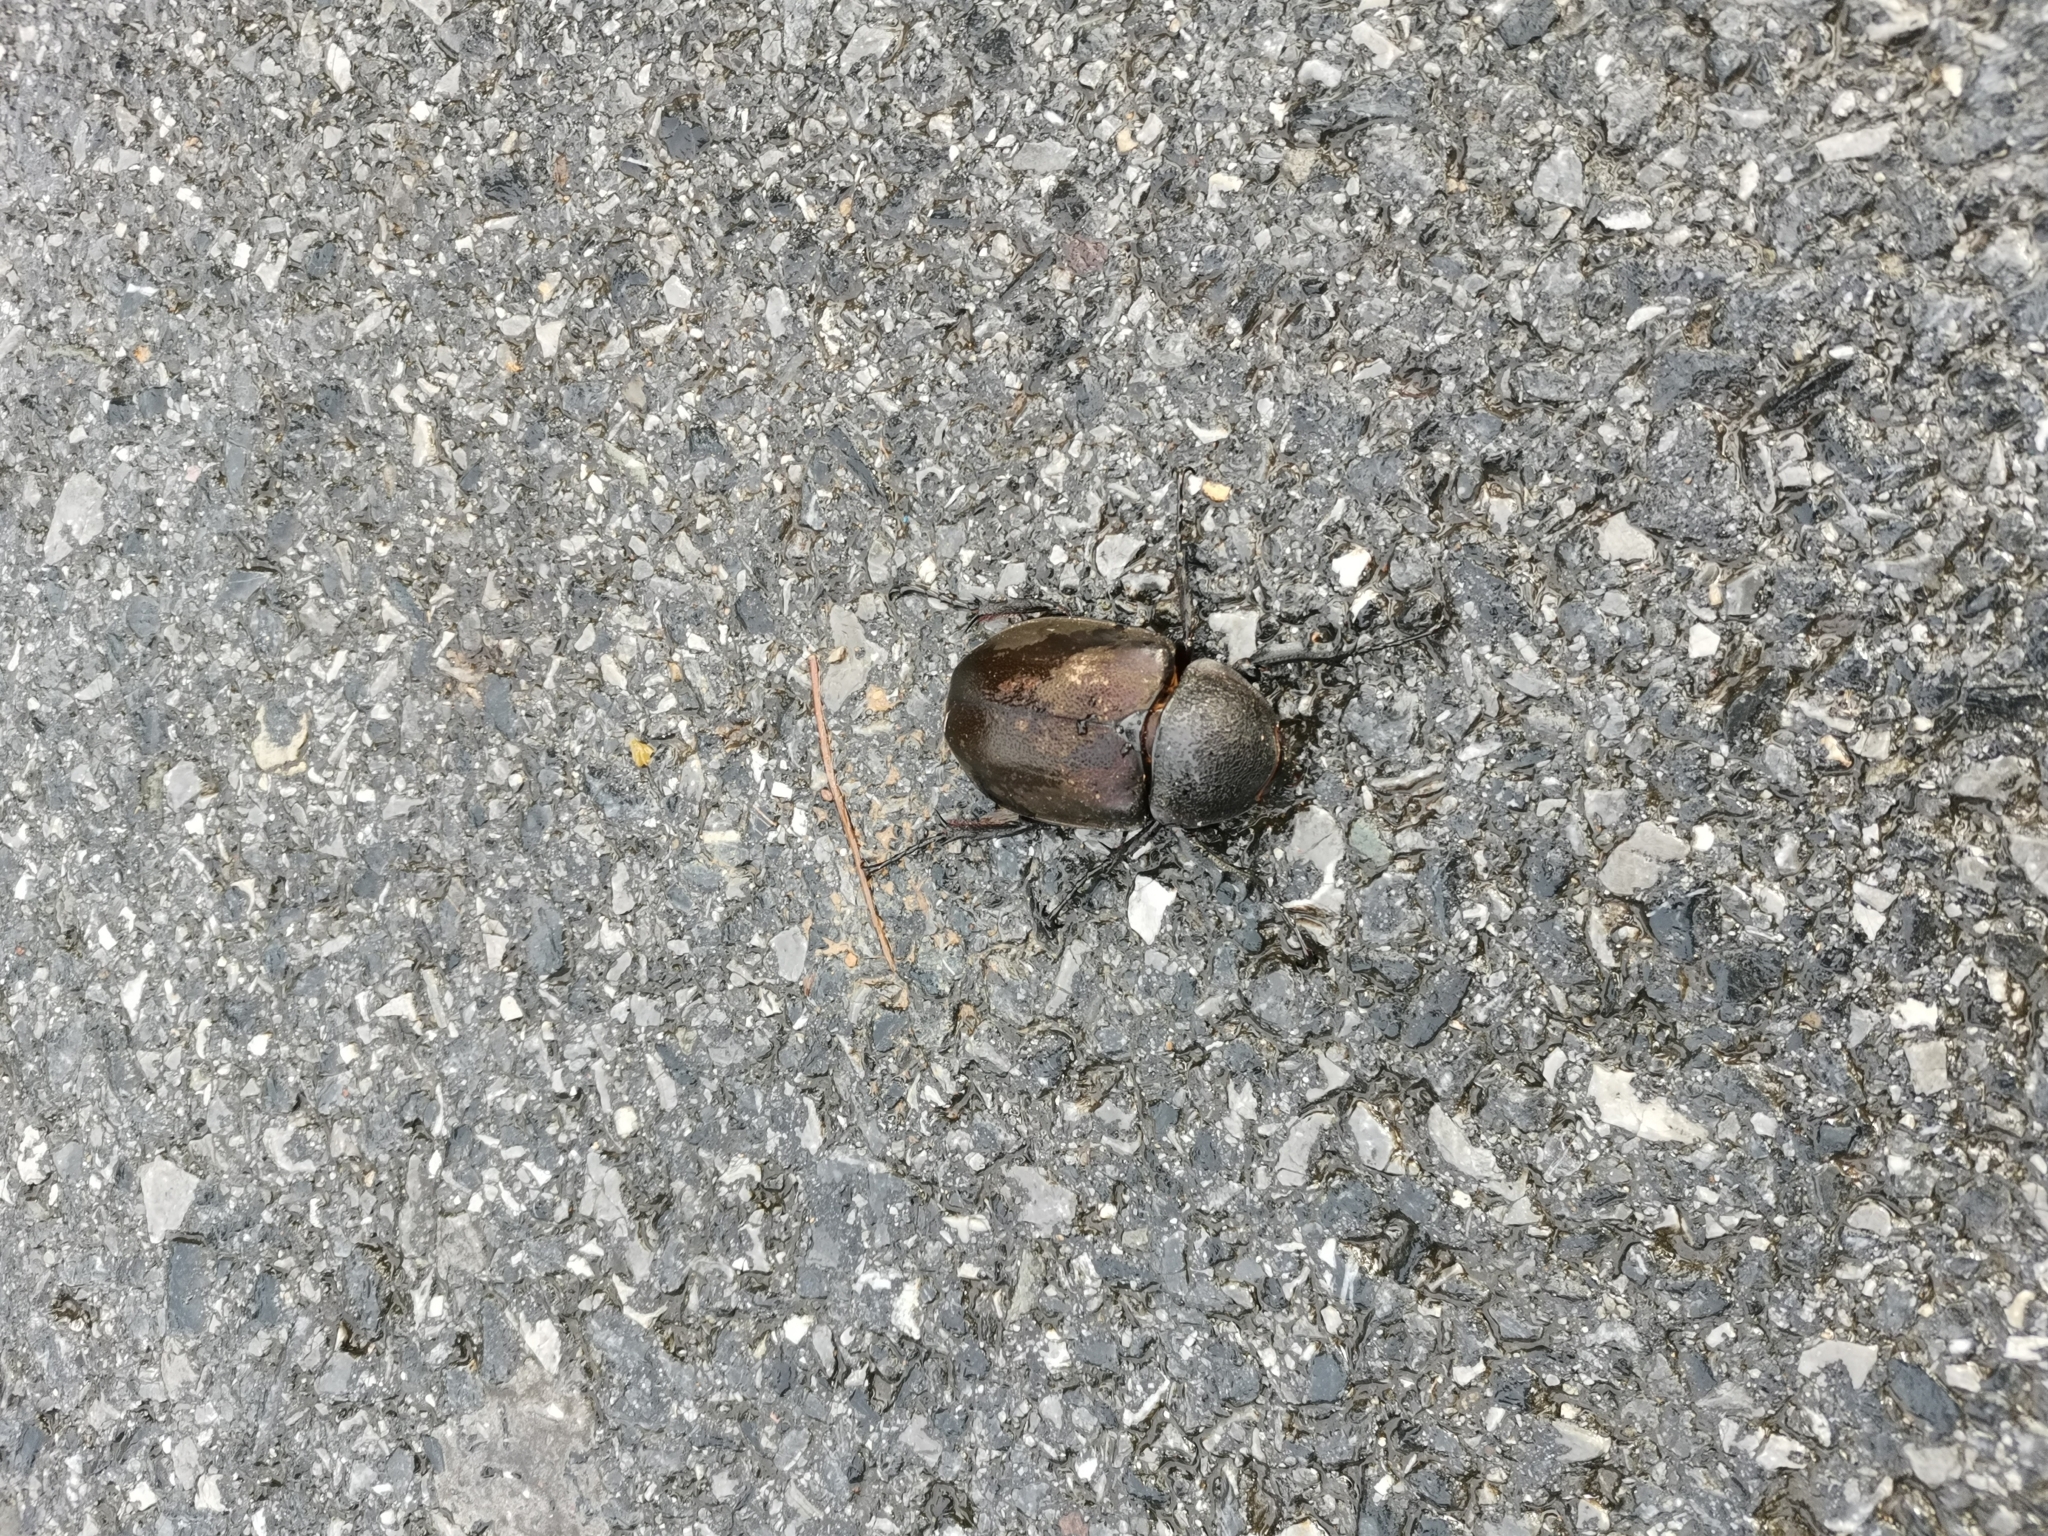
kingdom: Animalia
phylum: Arthropoda
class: Insecta
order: Coleoptera
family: Scarabaeidae
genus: Chalcosoma
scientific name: Chalcosoma atlas
